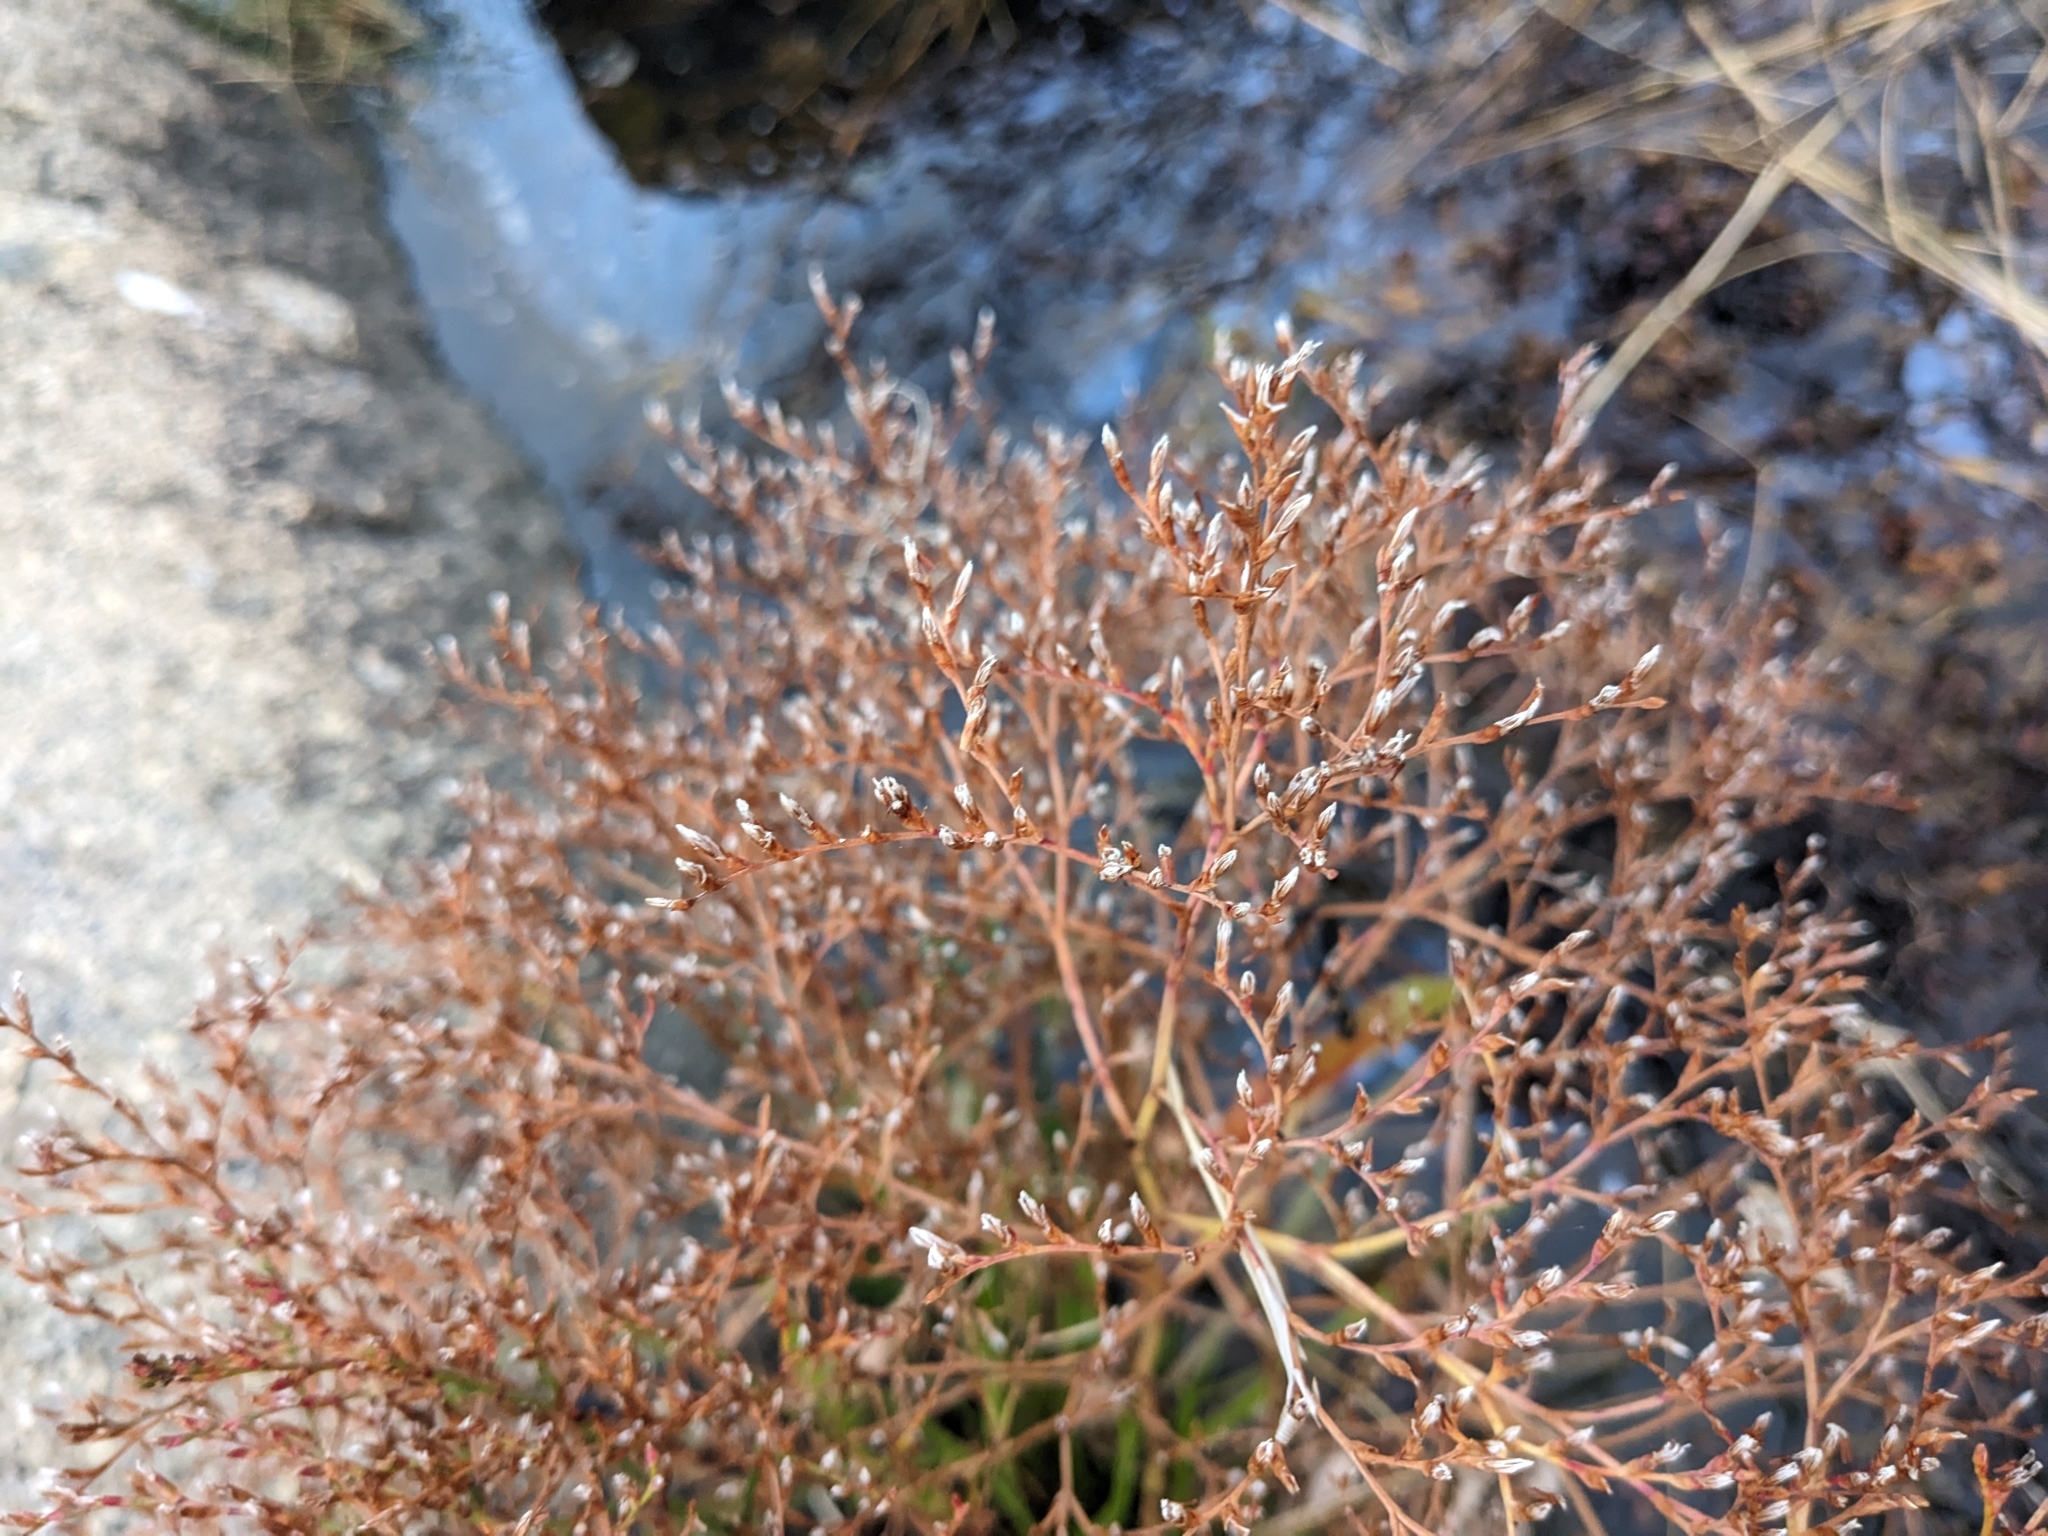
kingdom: Plantae
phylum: Tracheophyta
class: Magnoliopsida
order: Caryophyllales
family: Plumbaginaceae
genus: Limonium
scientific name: Limonium carolinianum
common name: Carolina sea lavender
